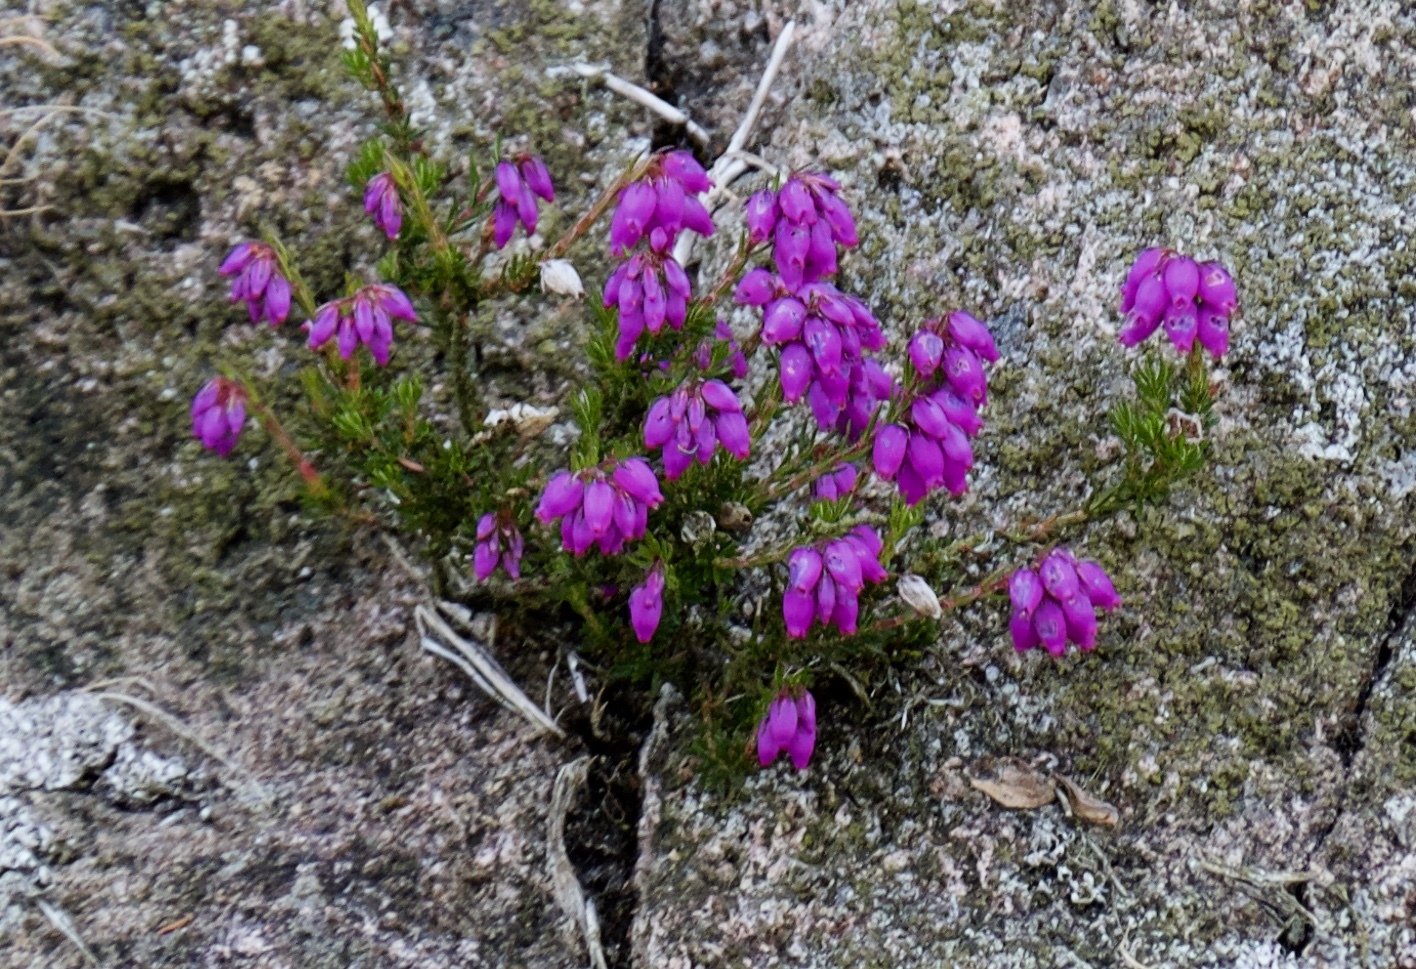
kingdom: Plantae
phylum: Tracheophyta
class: Magnoliopsida
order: Ericales
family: Ericaceae
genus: Erica
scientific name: Erica cinerea
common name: Bell heather
